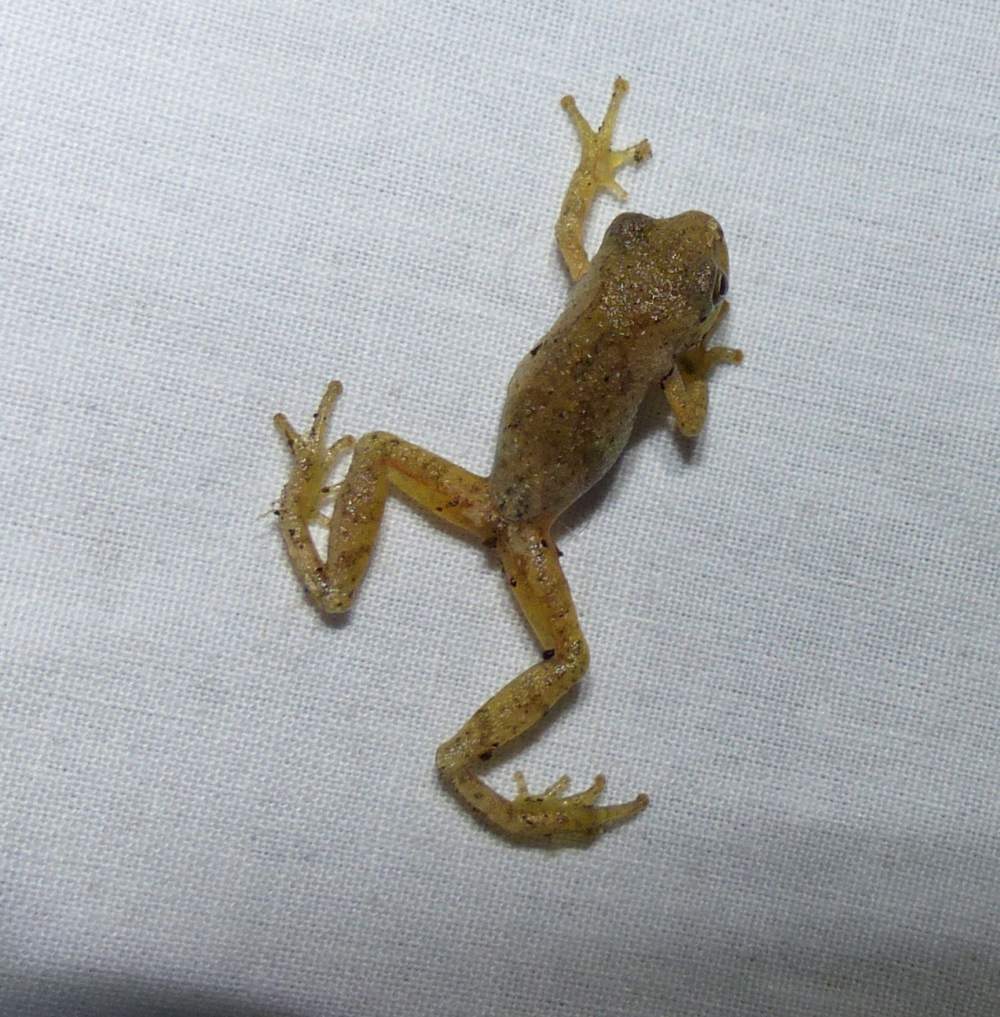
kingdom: Animalia
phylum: Chordata
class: Amphibia
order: Anura
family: Hylidae
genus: Pseudacris
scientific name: Pseudacris crucifer
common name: Spring peeper
